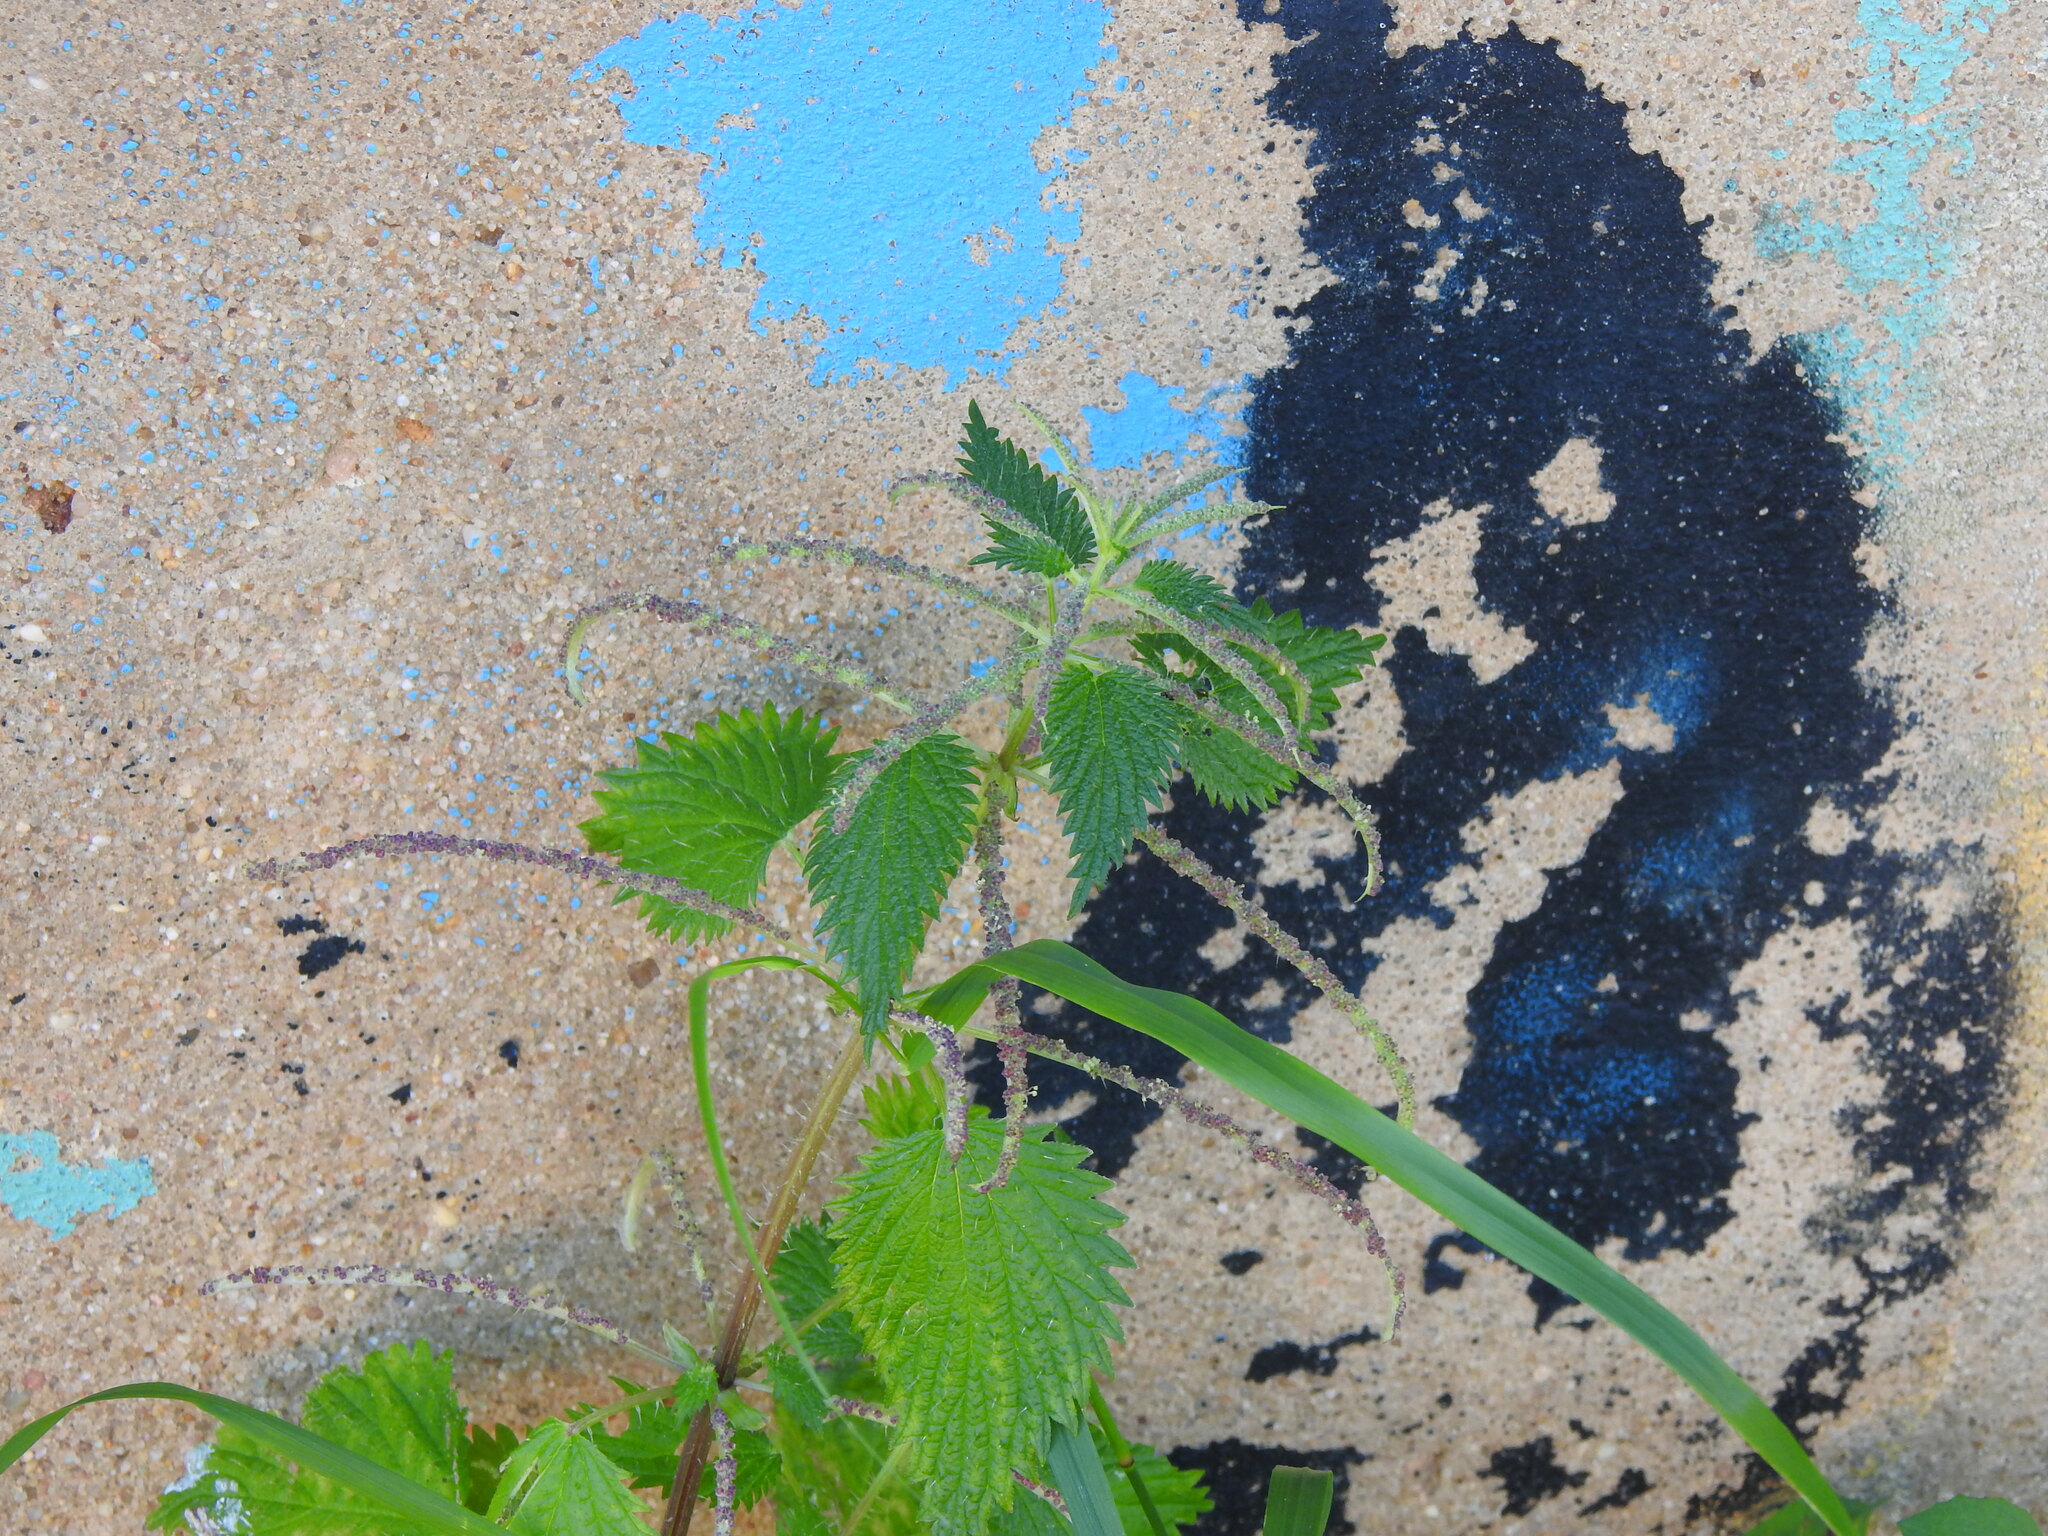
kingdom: Plantae
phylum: Tracheophyta
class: Magnoliopsida
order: Rosales
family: Urticaceae
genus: Urtica
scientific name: Urtica membranacea
